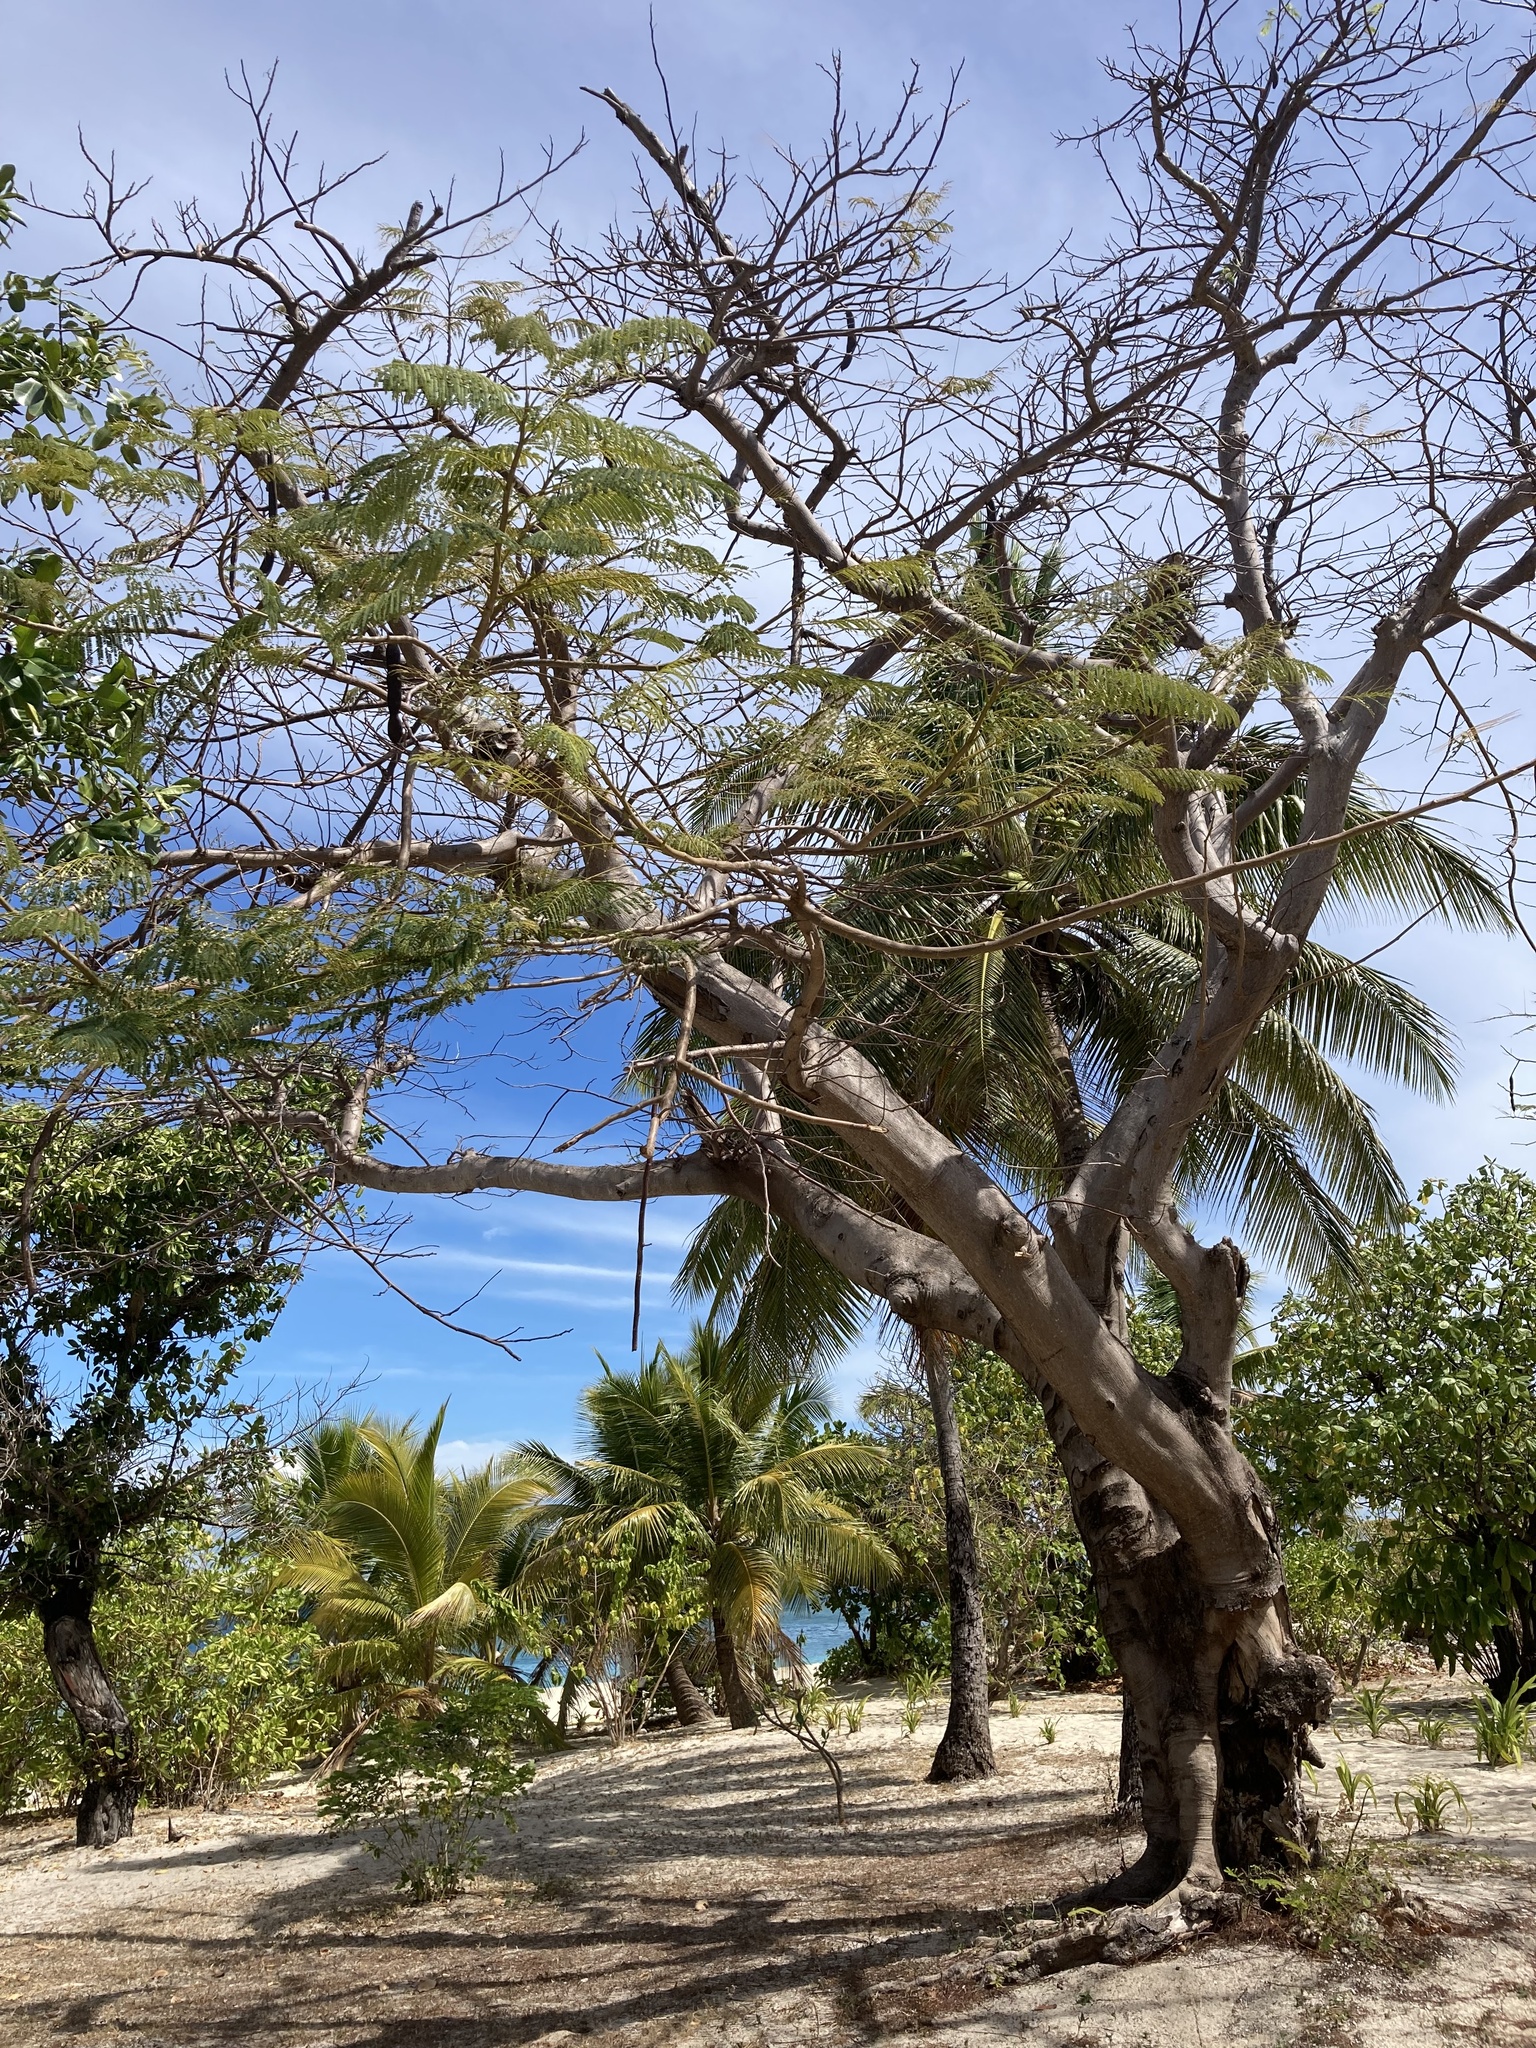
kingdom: Plantae
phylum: Tracheophyta
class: Magnoliopsida
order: Fabales
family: Fabaceae
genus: Delonix
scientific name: Delonix regia
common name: Royal poinciana
